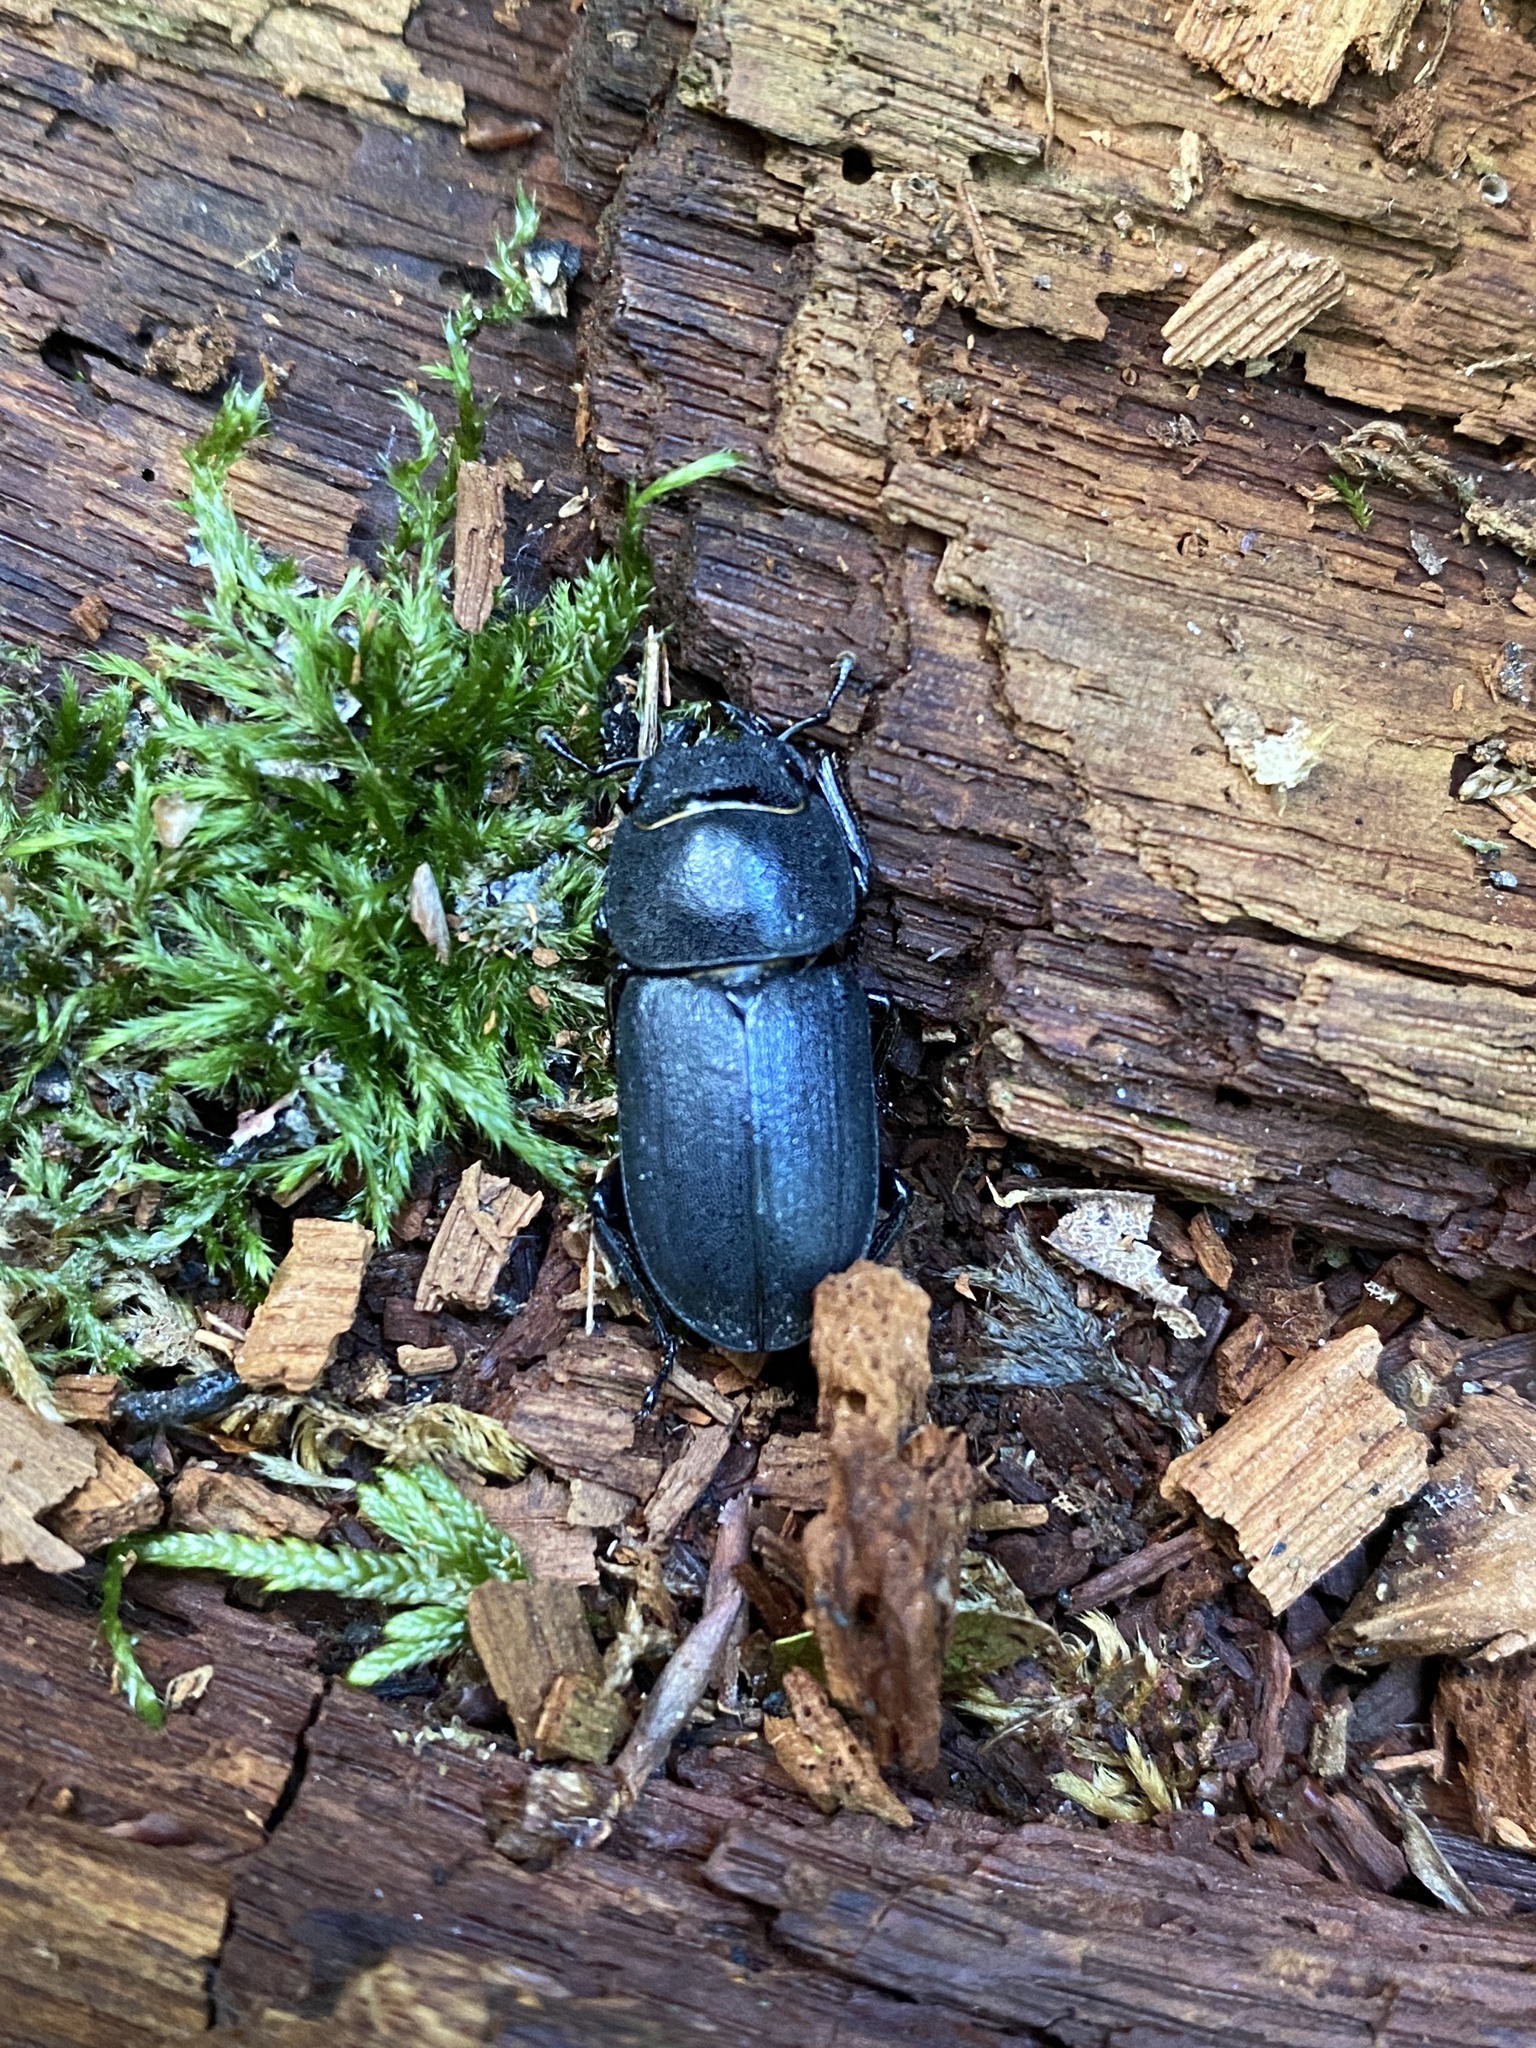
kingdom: Animalia
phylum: Arthropoda
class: Insecta
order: Coleoptera
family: Lucanidae
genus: Dorcus
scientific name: Dorcus parallelipipedus
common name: Lesser stag beetle
